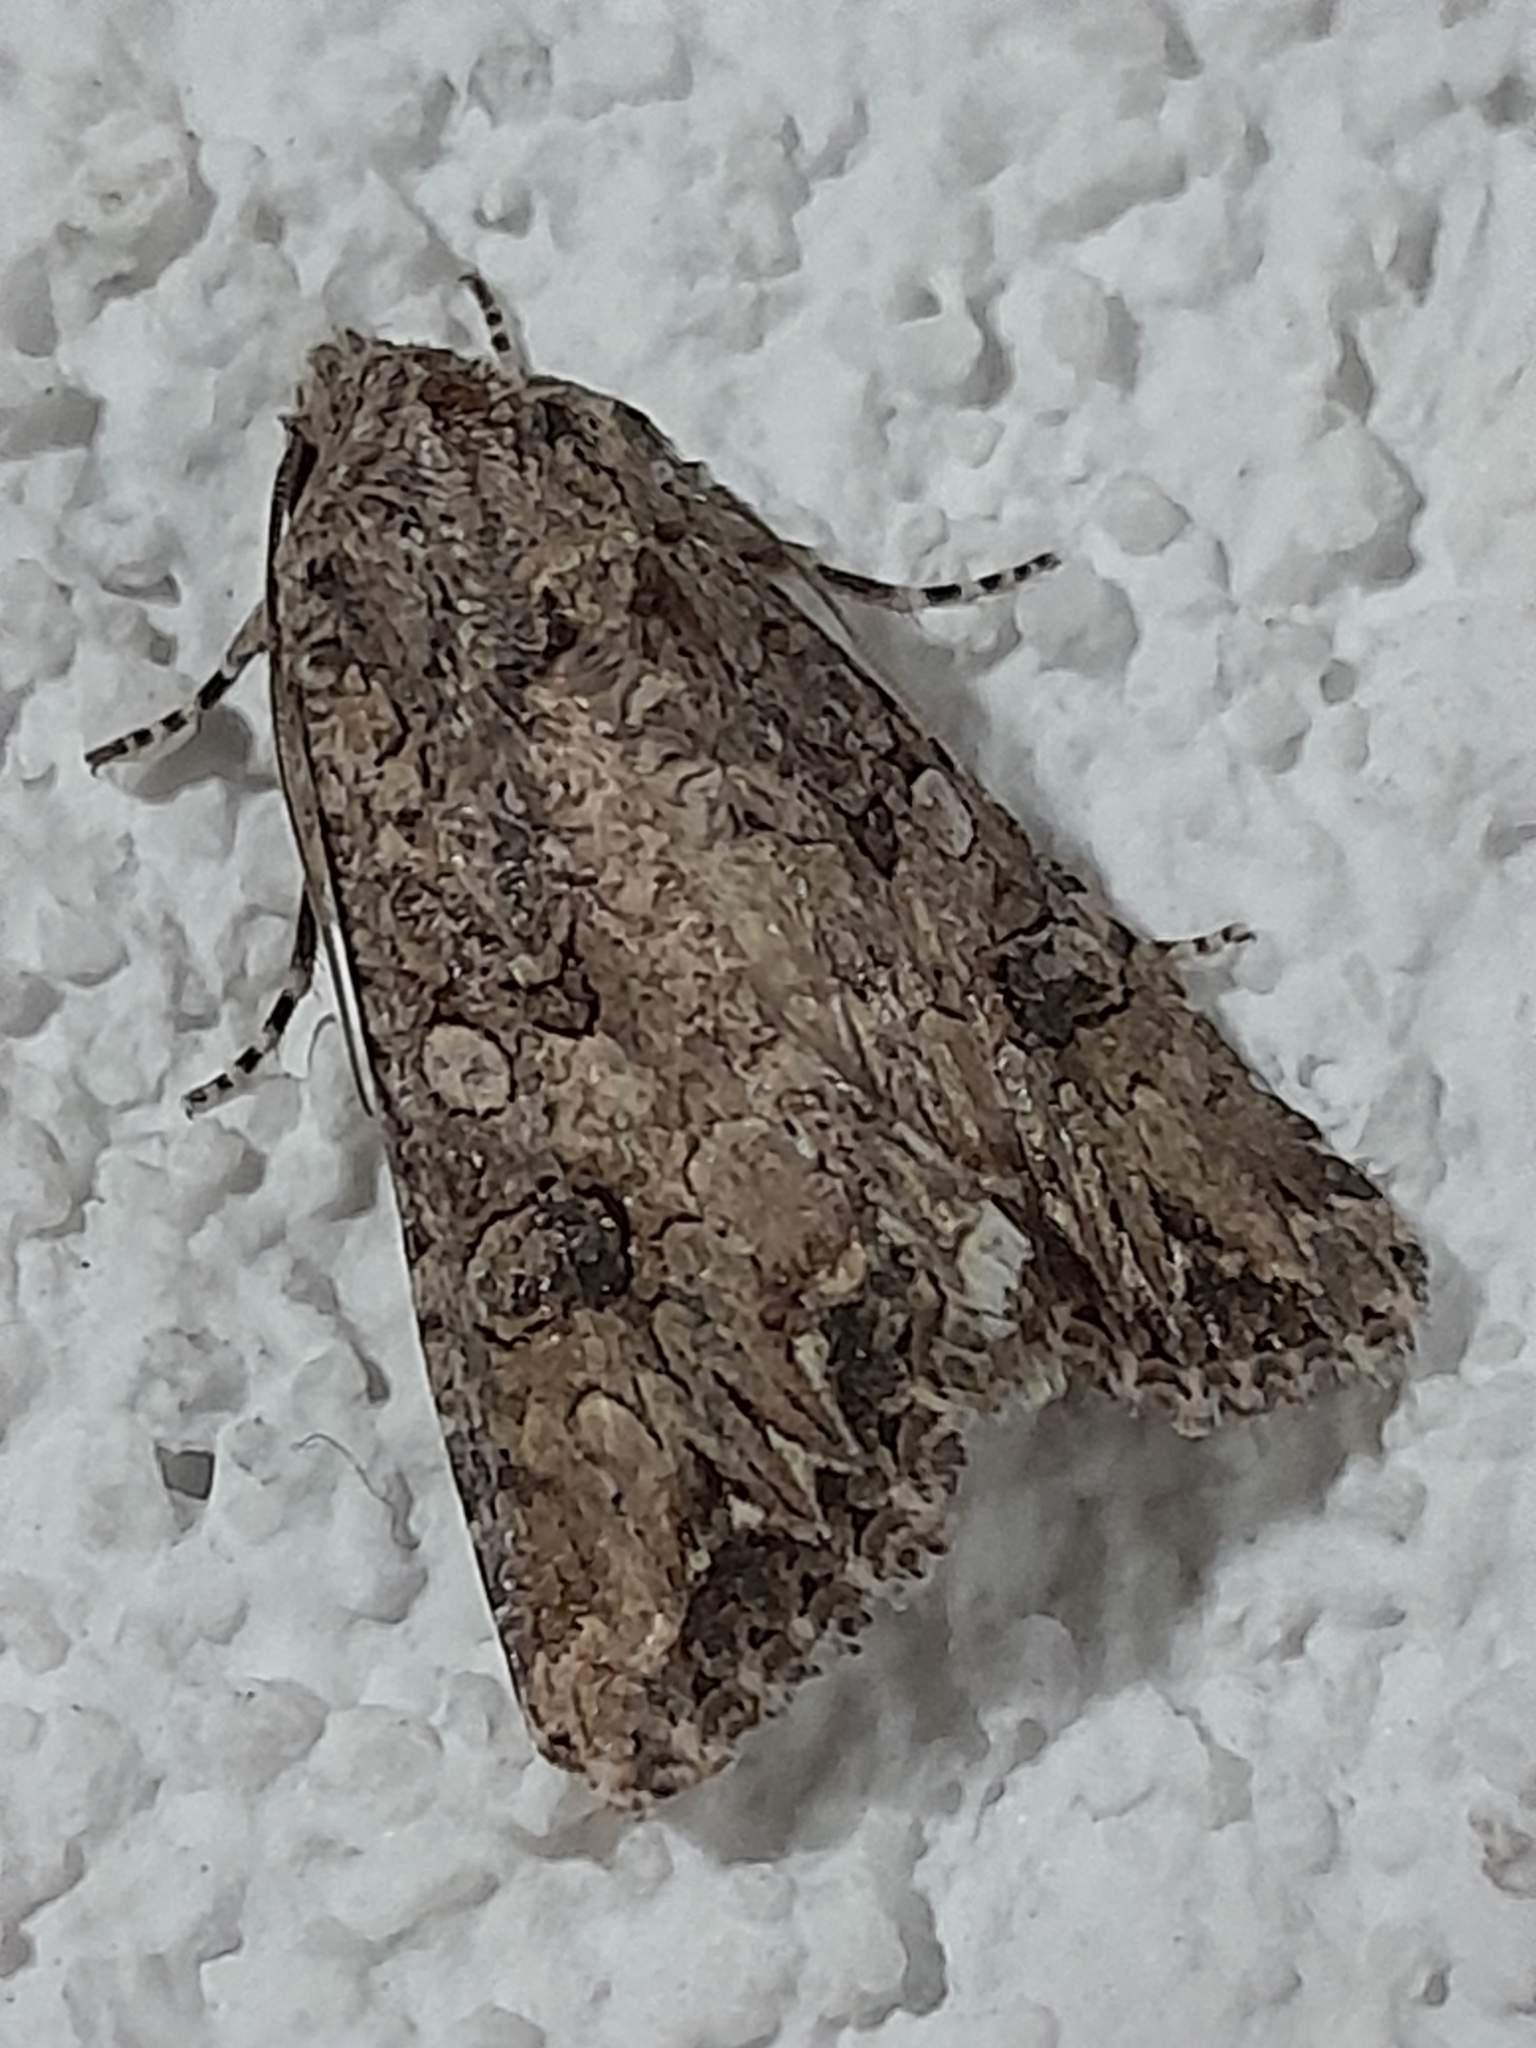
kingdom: Animalia
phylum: Arthropoda
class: Insecta
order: Lepidoptera
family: Noctuidae
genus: Anarta
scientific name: Anarta trifolii
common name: Clover cutworm moth
